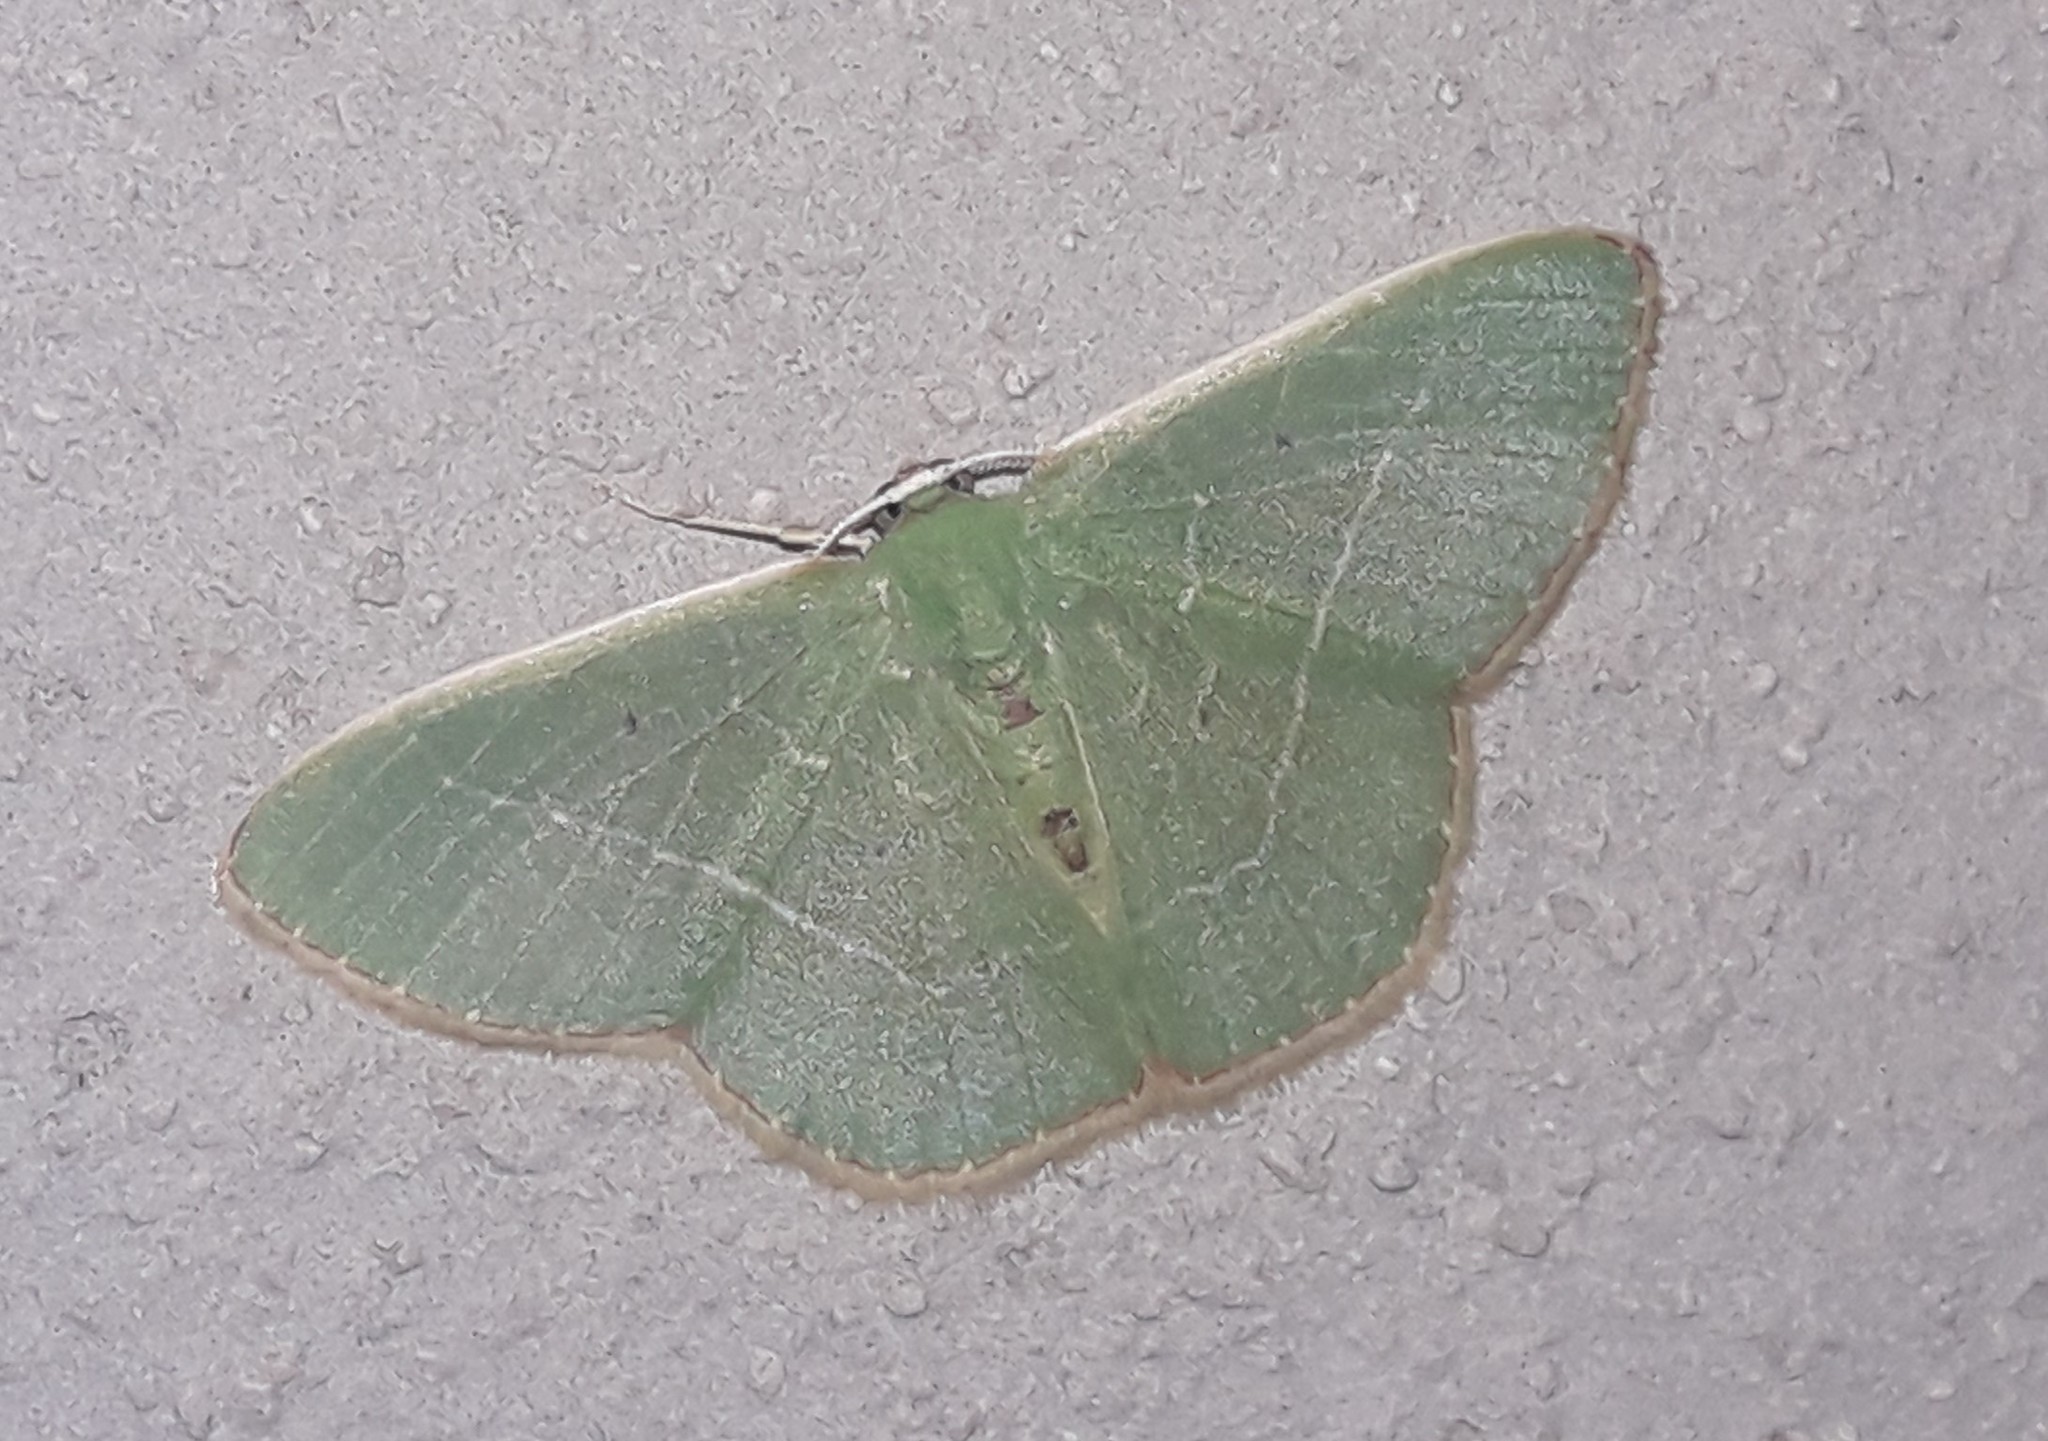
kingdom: Animalia
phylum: Arthropoda
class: Insecta
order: Lepidoptera
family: Geometridae
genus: Nemoria
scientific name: Nemoria karlae
